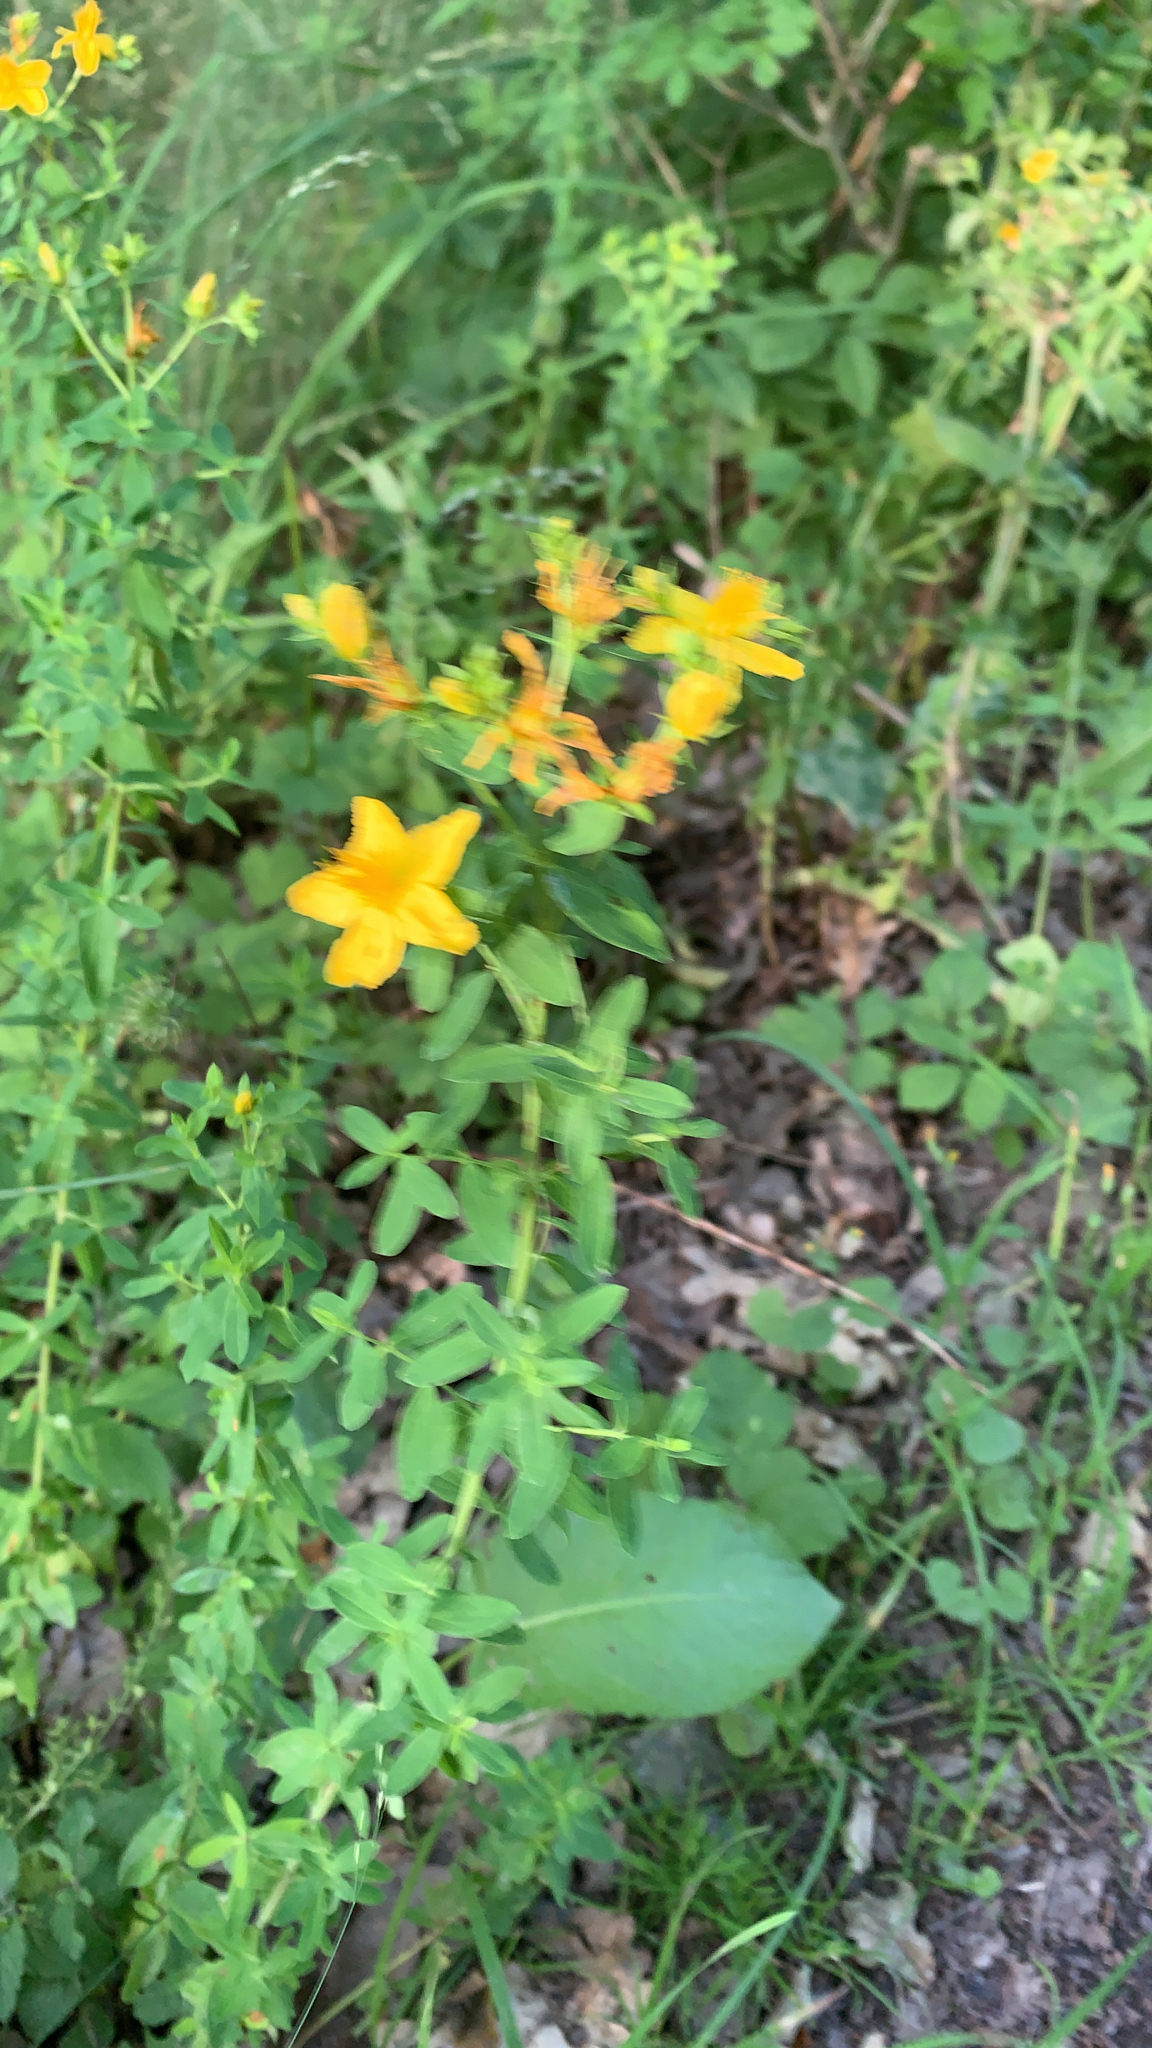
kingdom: Plantae
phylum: Tracheophyta
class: Magnoliopsida
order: Malpighiales
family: Hypericaceae
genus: Hypericum
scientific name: Hypericum perforatum
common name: Common st. johnswort
